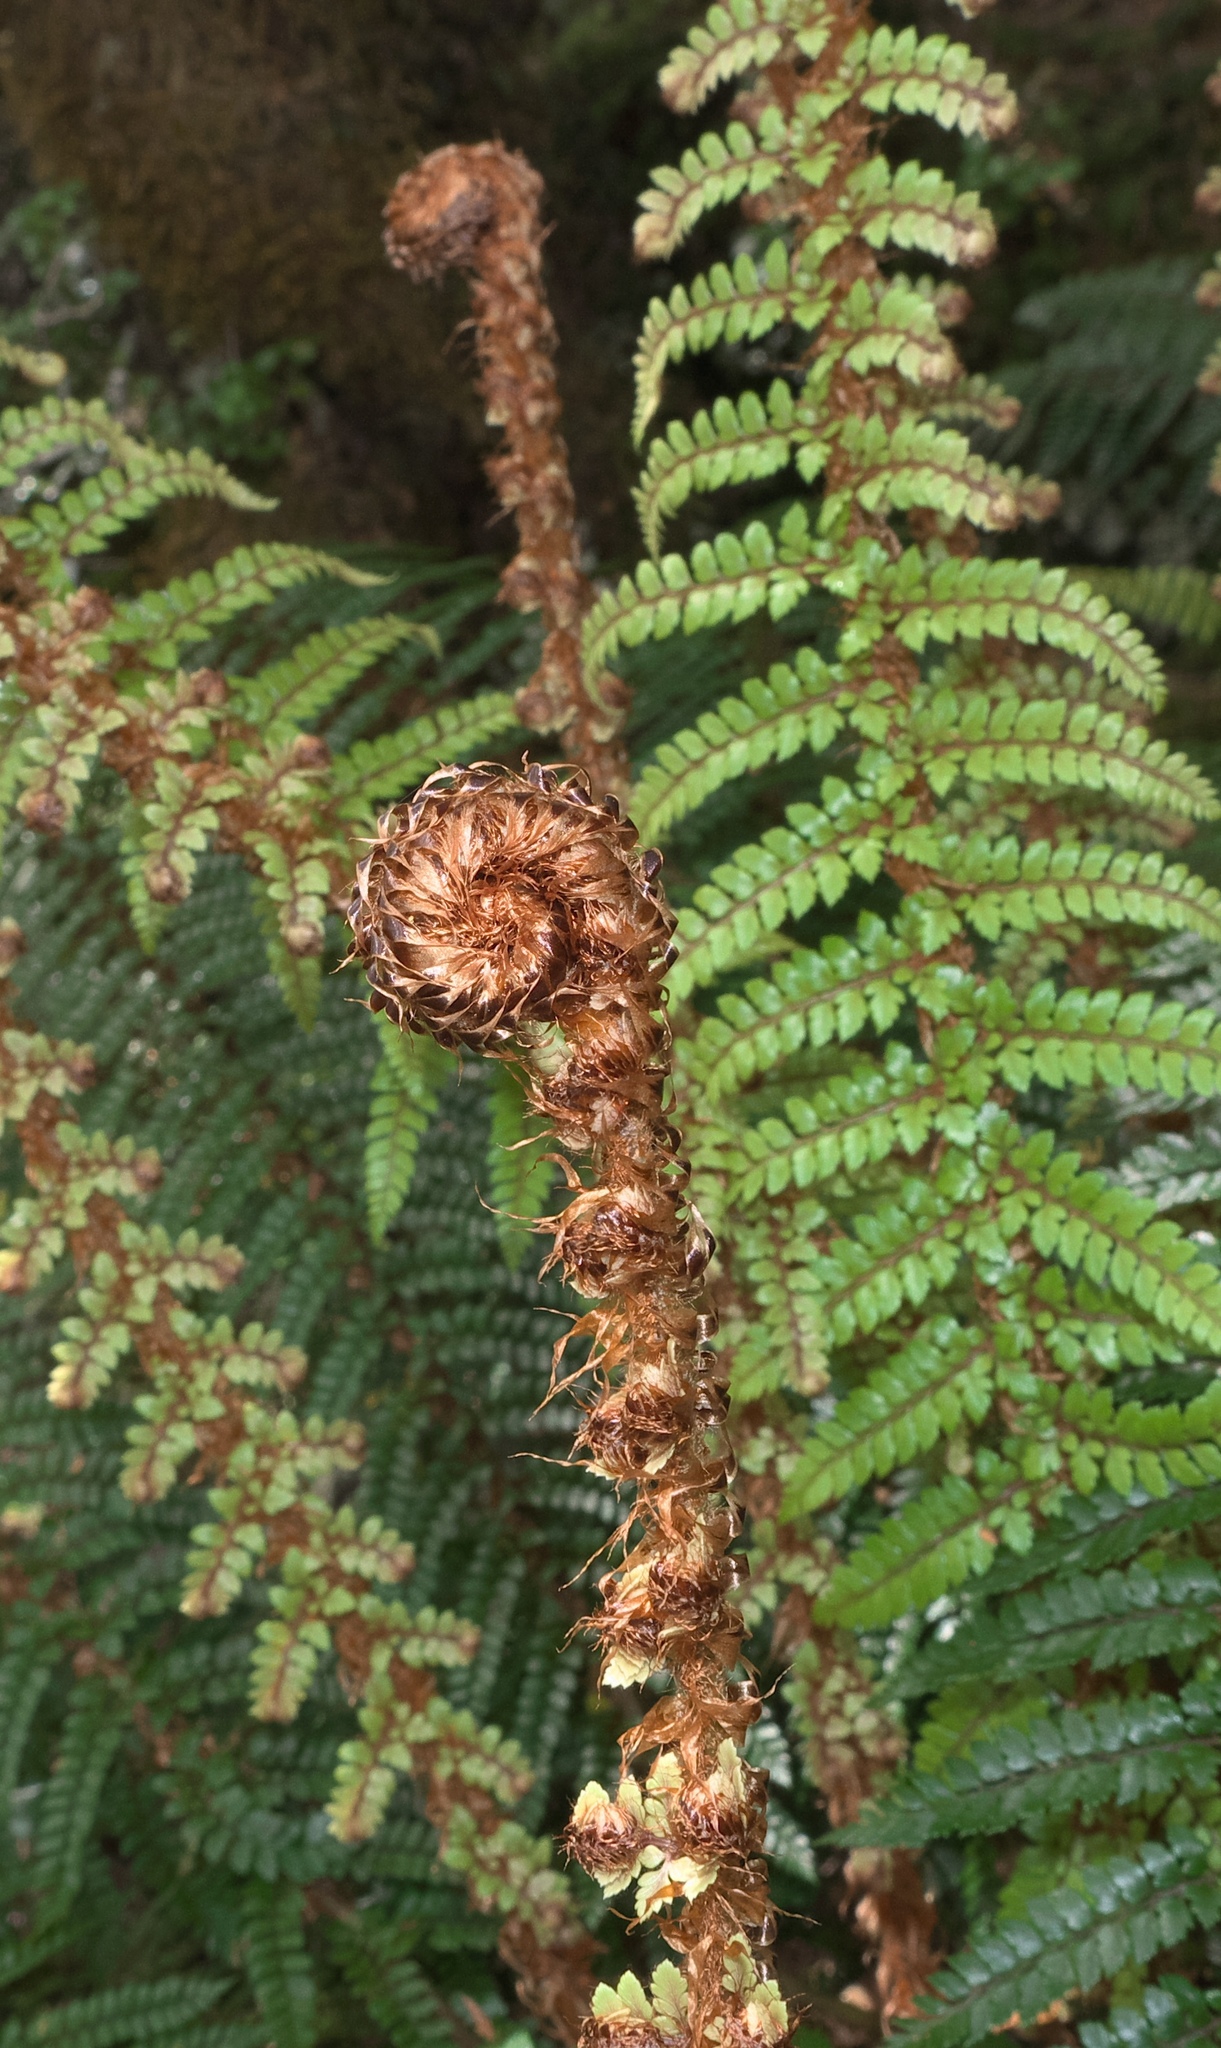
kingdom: Plantae
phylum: Tracheophyta
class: Polypodiopsida
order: Polypodiales
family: Dryopteridaceae
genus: Polystichum
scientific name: Polystichum vestitum
